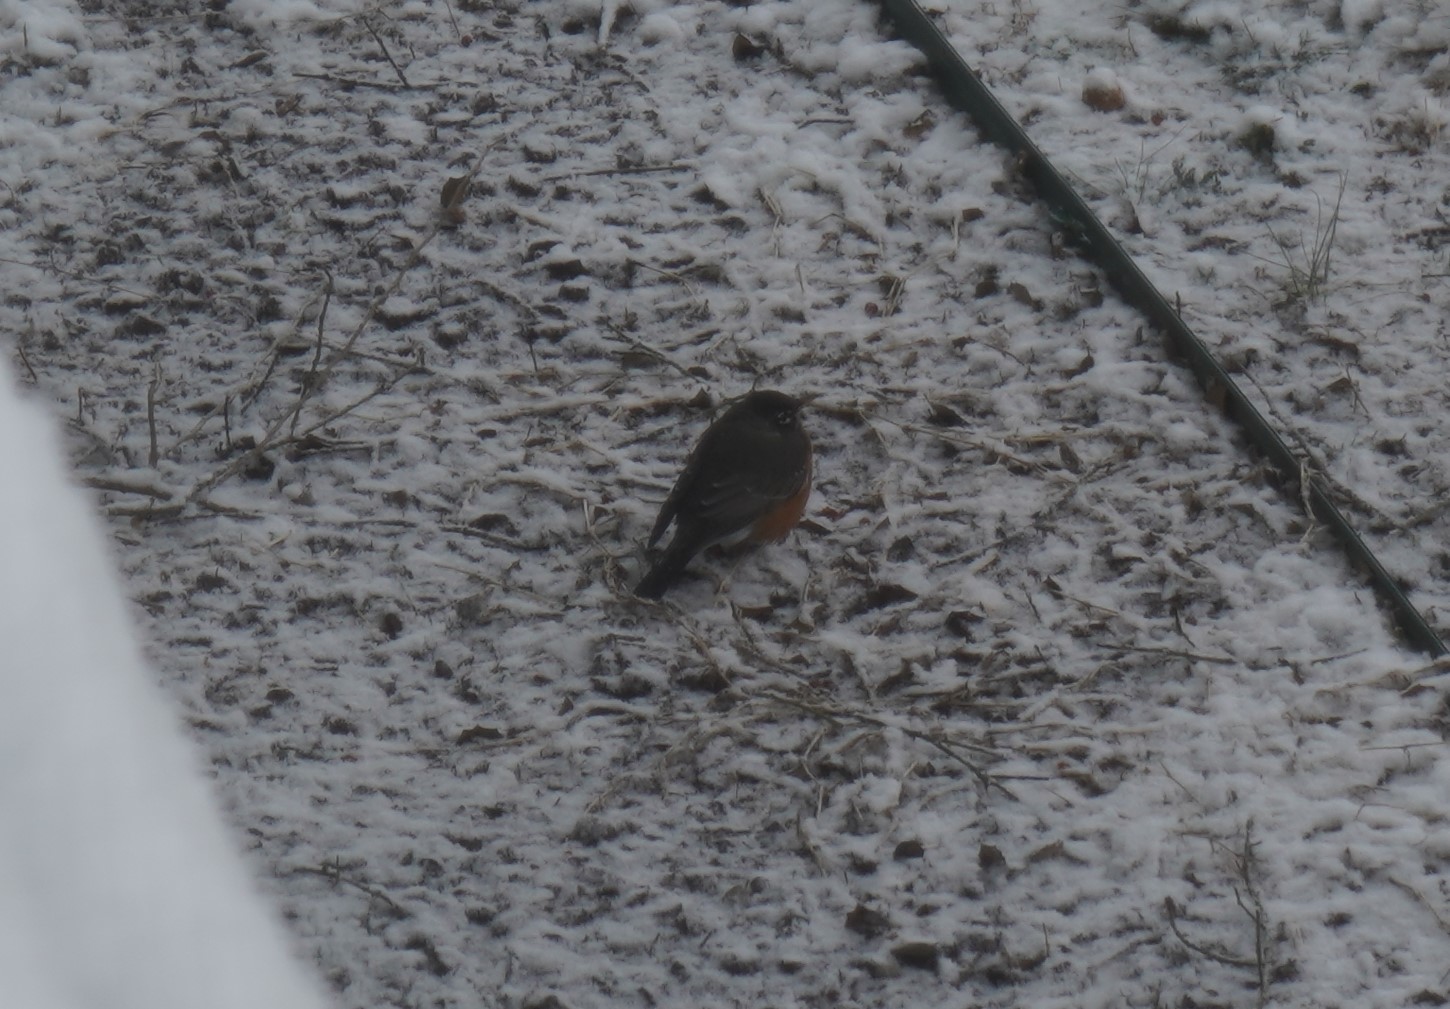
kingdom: Animalia
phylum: Chordata
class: Aves
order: Passeriformes
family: Turdidae
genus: Turdus
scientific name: Turdus migratorius
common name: American robin
